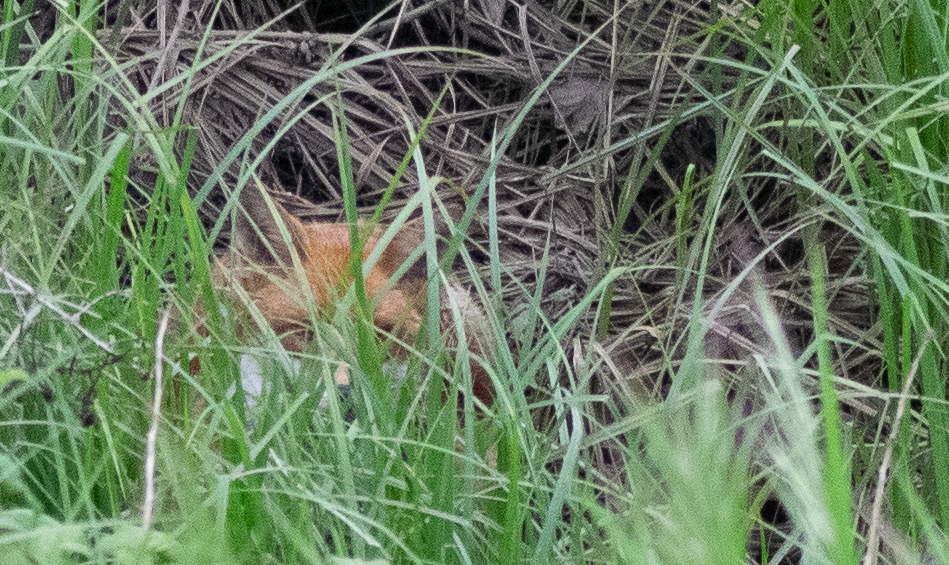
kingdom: Animalia
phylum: Chordata
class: Mammalia
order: Carnivora
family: Canidae
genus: Vulpes
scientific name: Vulpes vulpes
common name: Red fox
